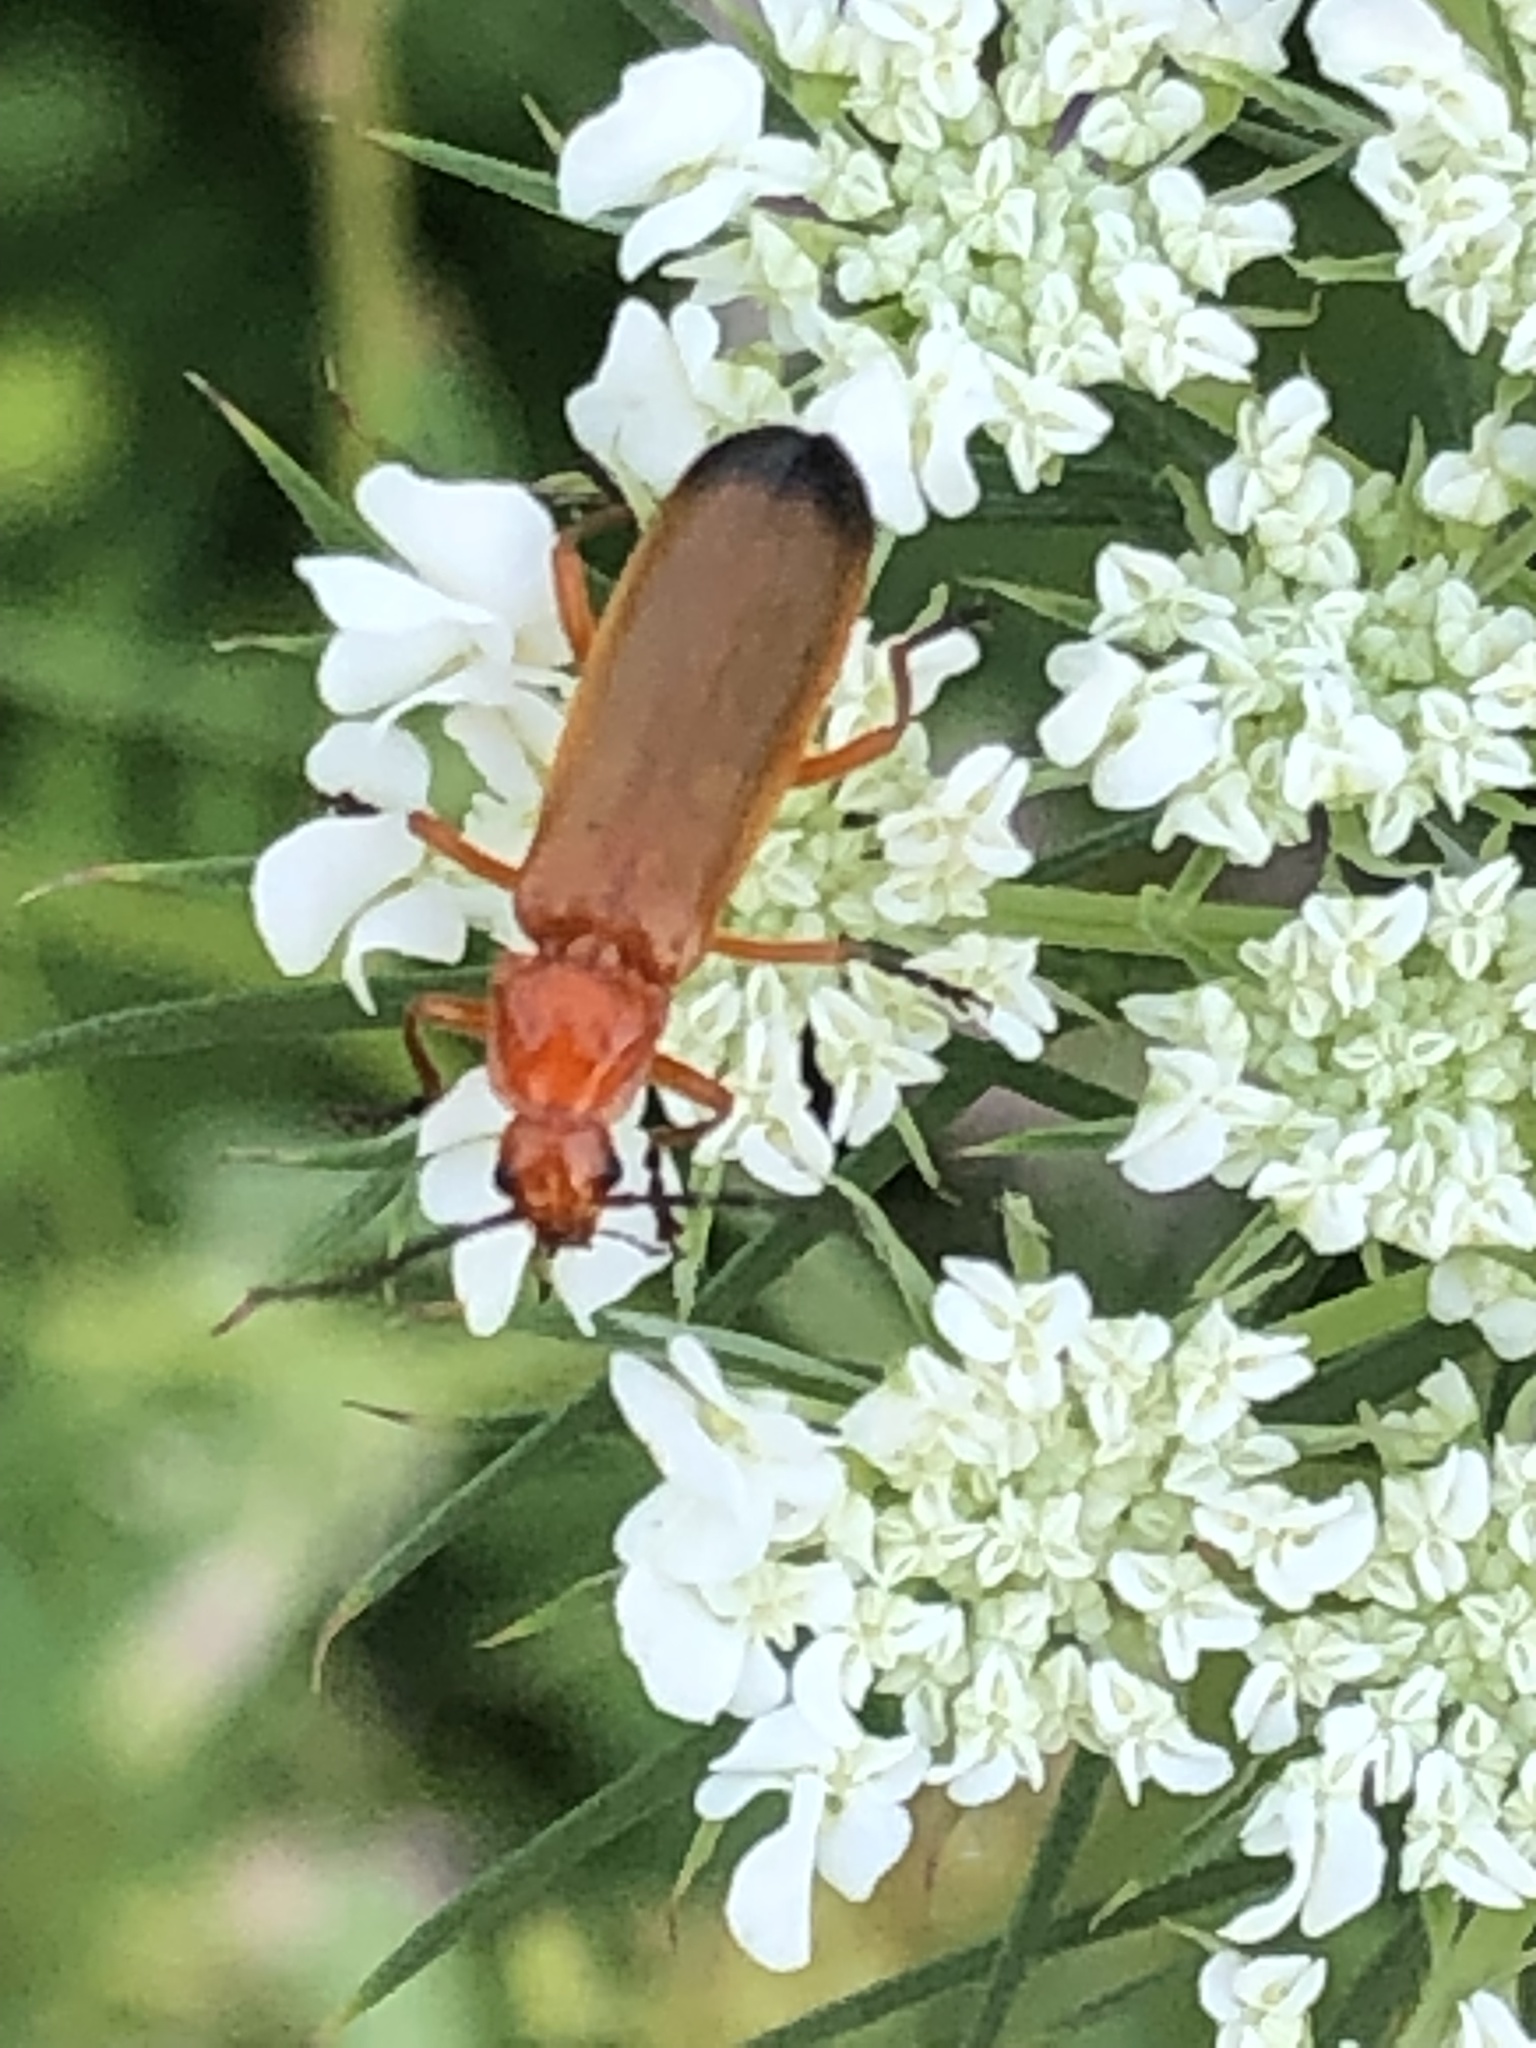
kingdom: Animalia
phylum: Arthropoda
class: Insecta
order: Coleoptera
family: Cantharidae
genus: Rhagonycha
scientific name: Rhagonycha fulva
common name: Common red soldier beetle
